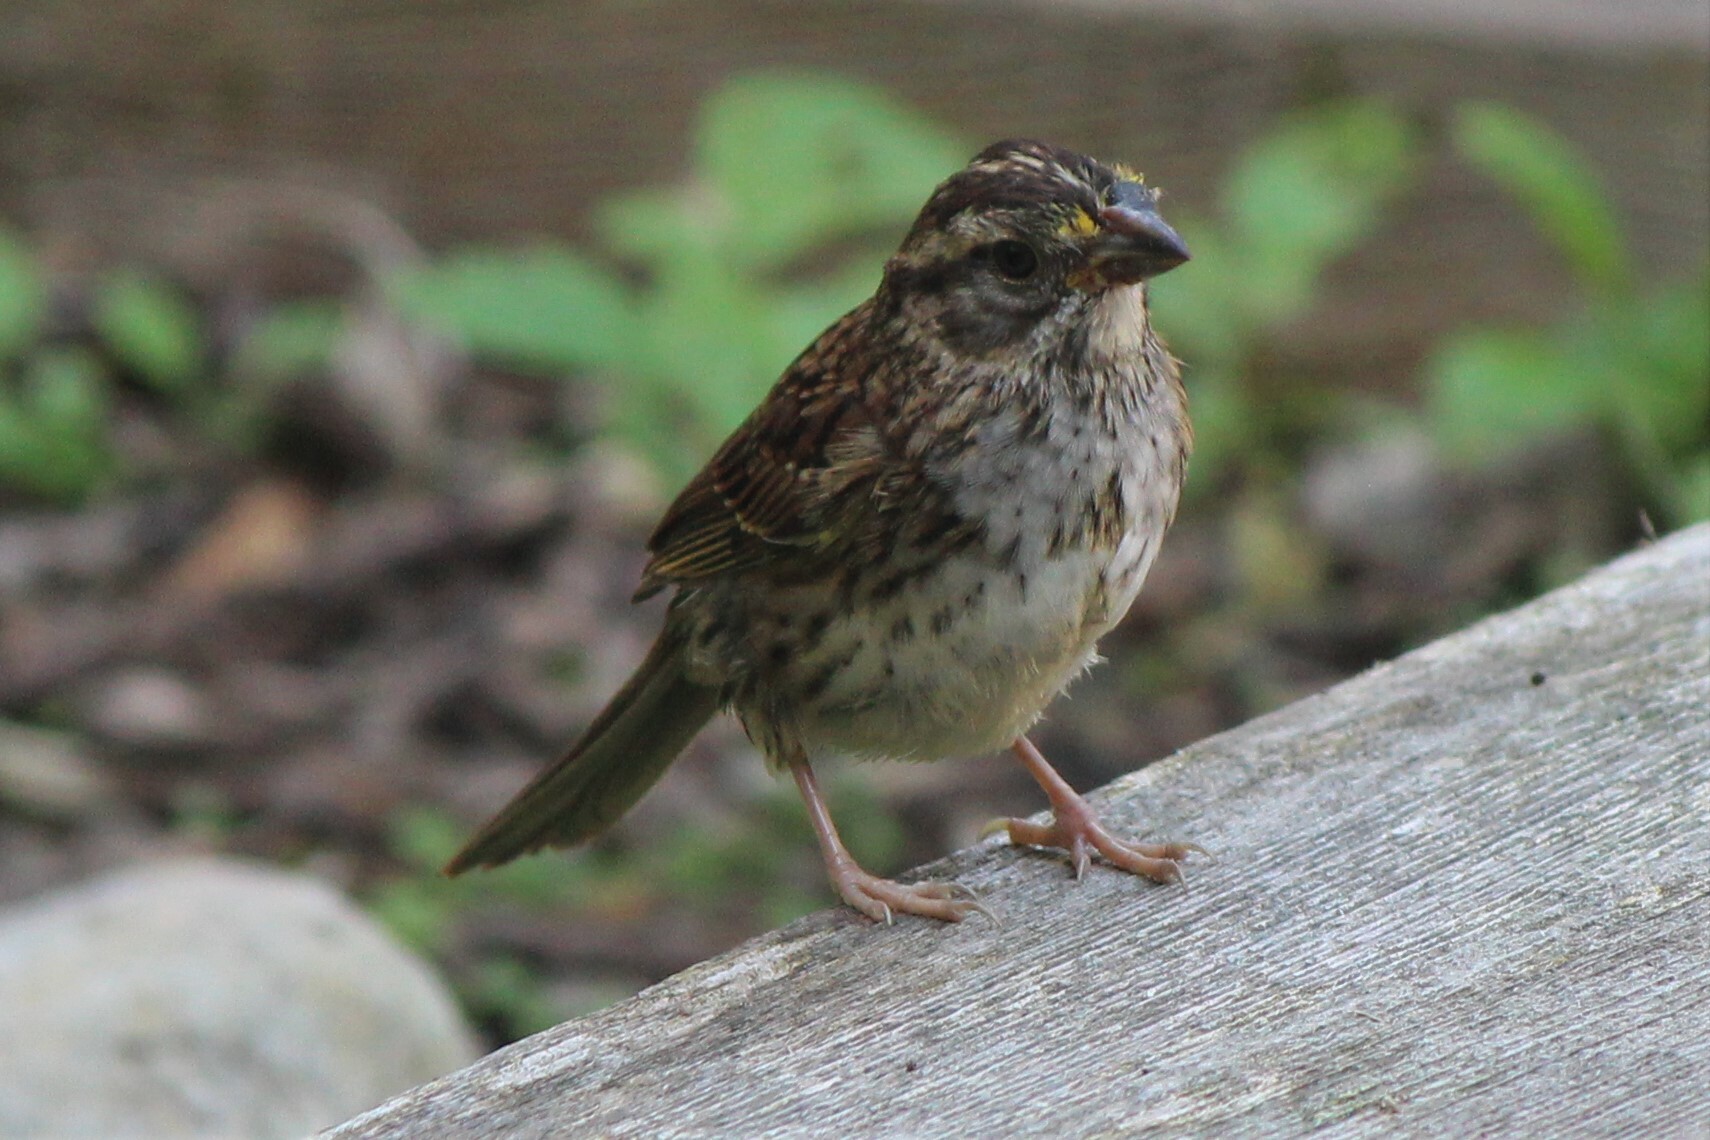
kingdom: Animalia
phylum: Chordata
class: Aves
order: Passeriformes
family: Passerellidae
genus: Zonotrichia
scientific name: Zonotrichia albicollis
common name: White-throated sparrow
